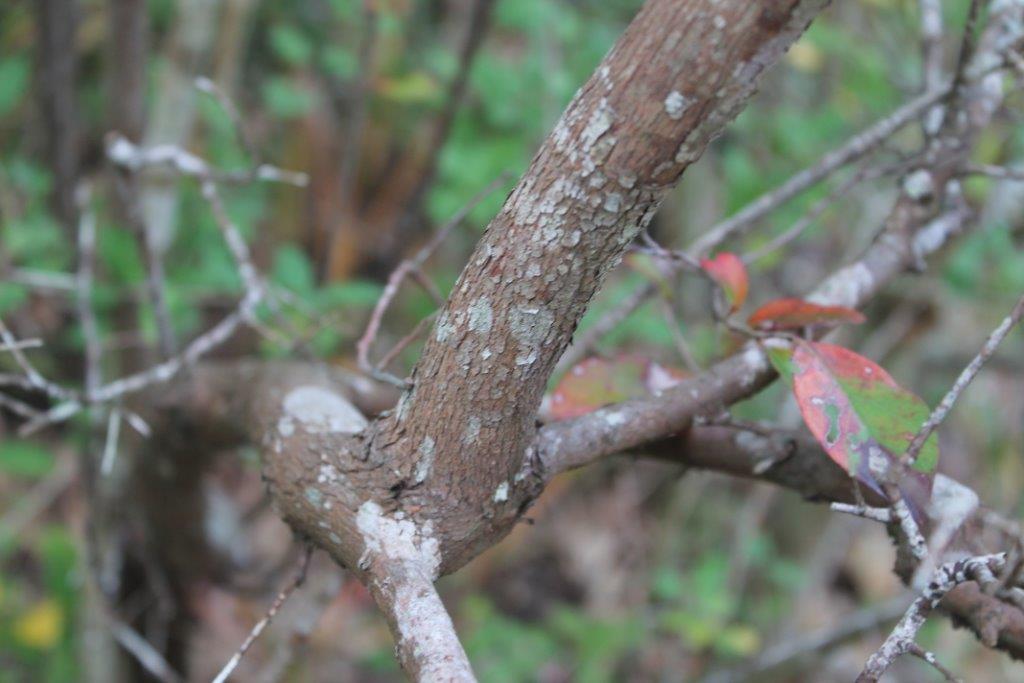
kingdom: Plantae
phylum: Tracheophyta
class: Magnoliopsida
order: Ericales
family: Ericaceae
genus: Vaccinium
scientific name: Vaccinium arboreum
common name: Farkleberry
